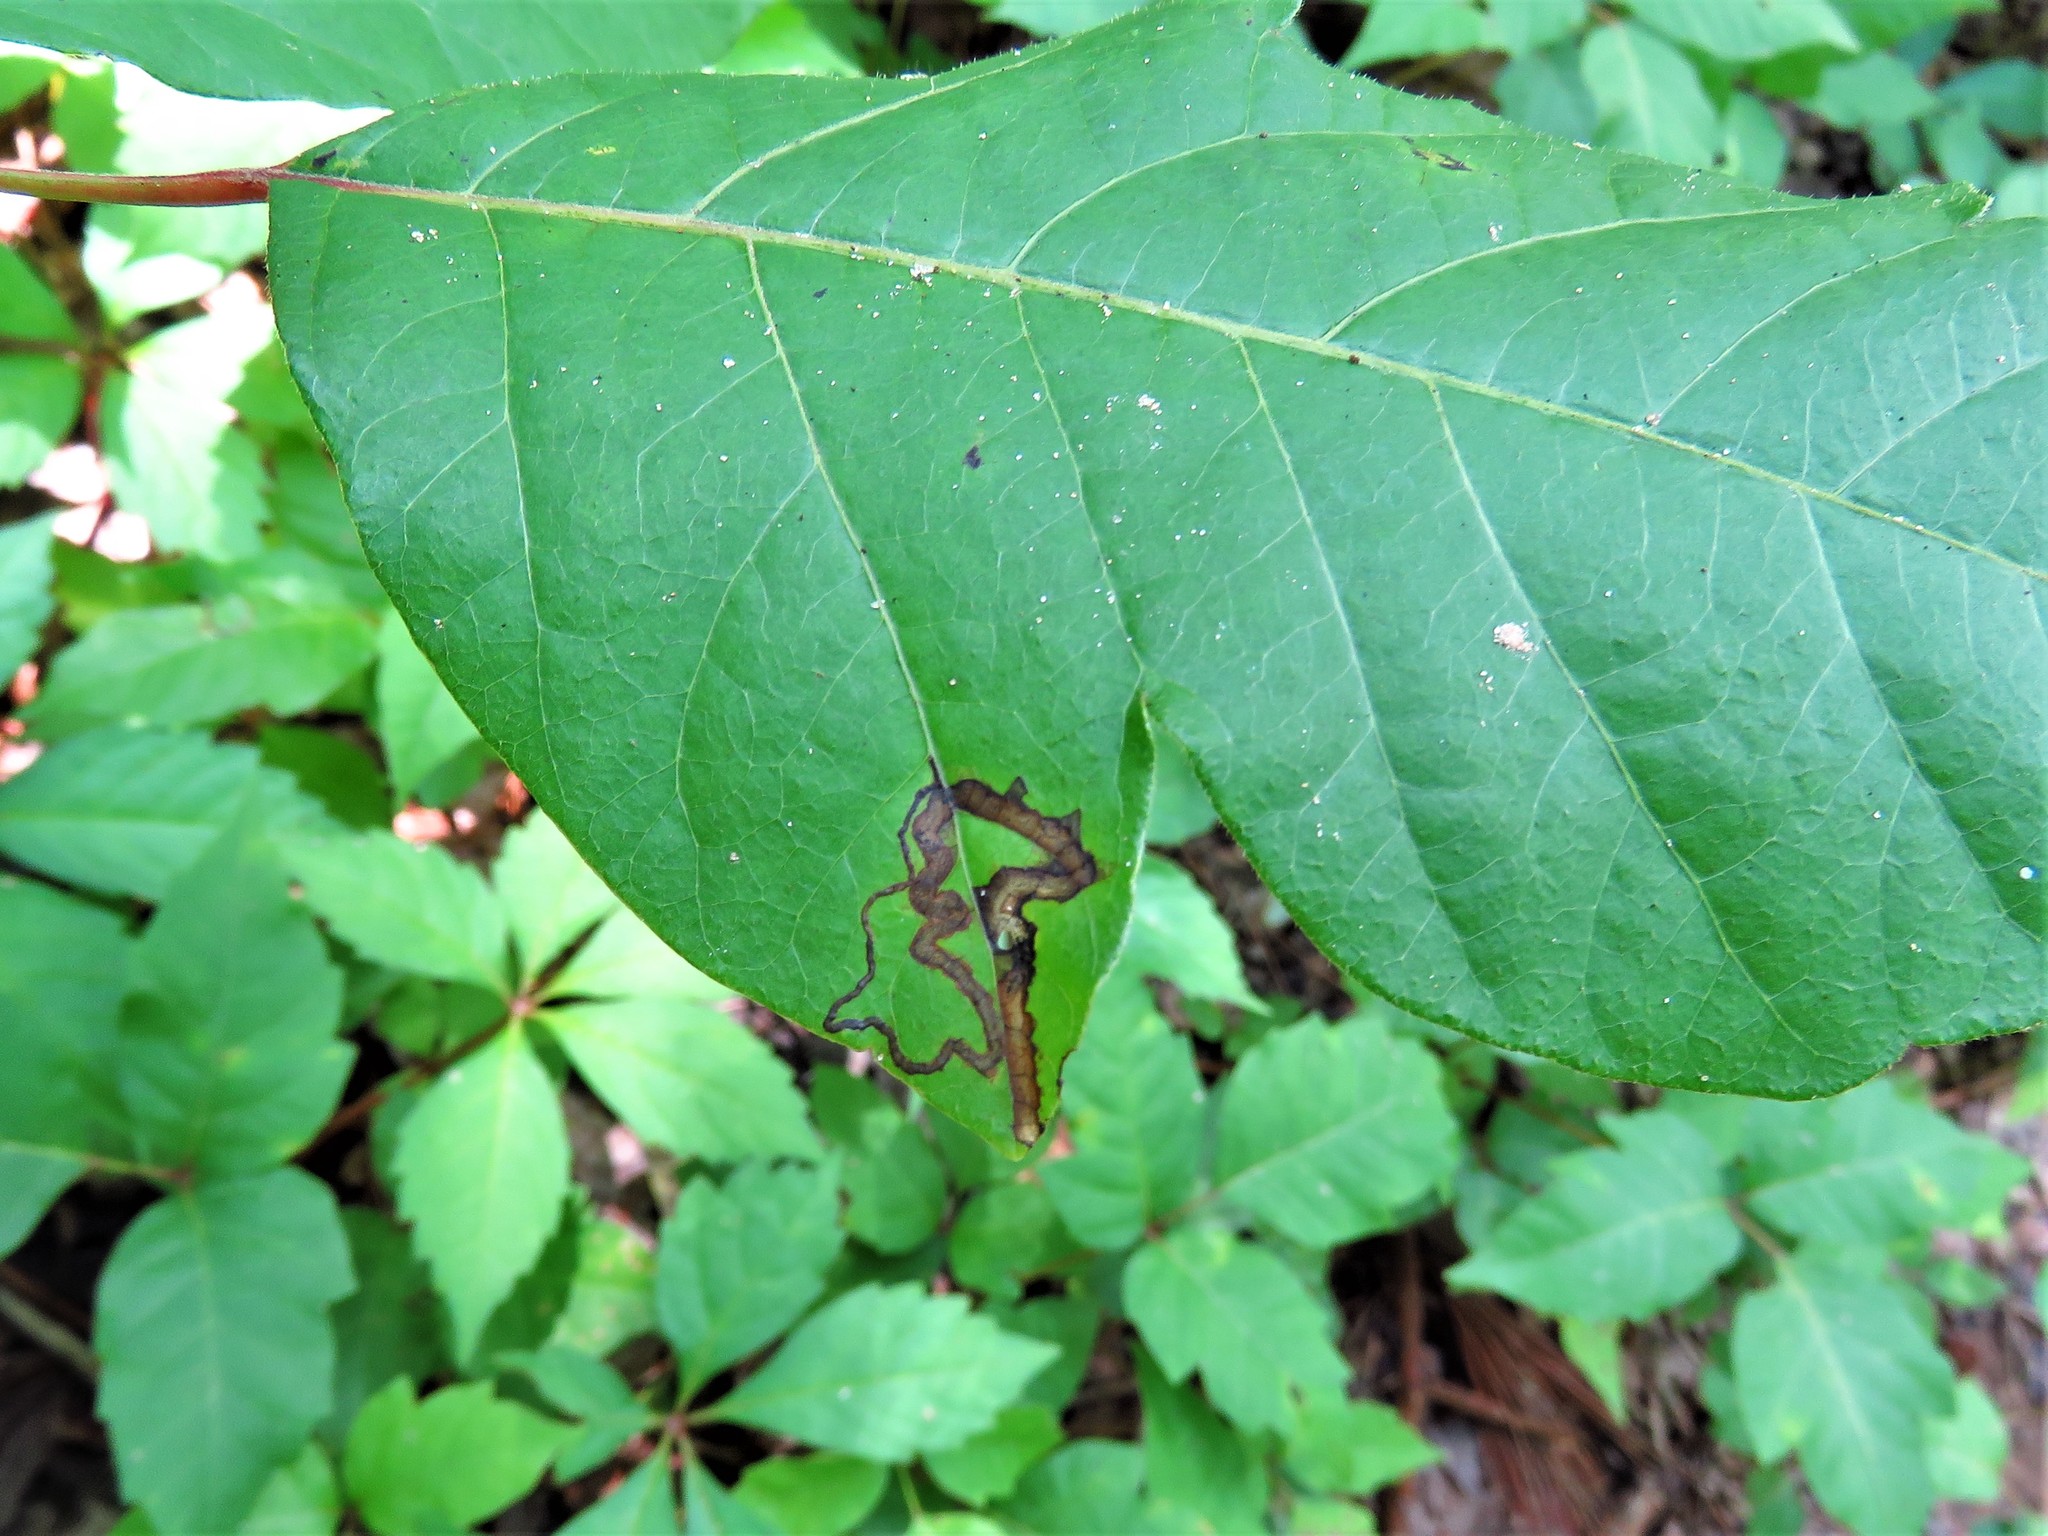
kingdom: Animalia
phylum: Arthropoda
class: Insecta
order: Lepidoptera
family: Nepticulidae
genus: Stigmella
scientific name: Stigmella rhoifoliella
